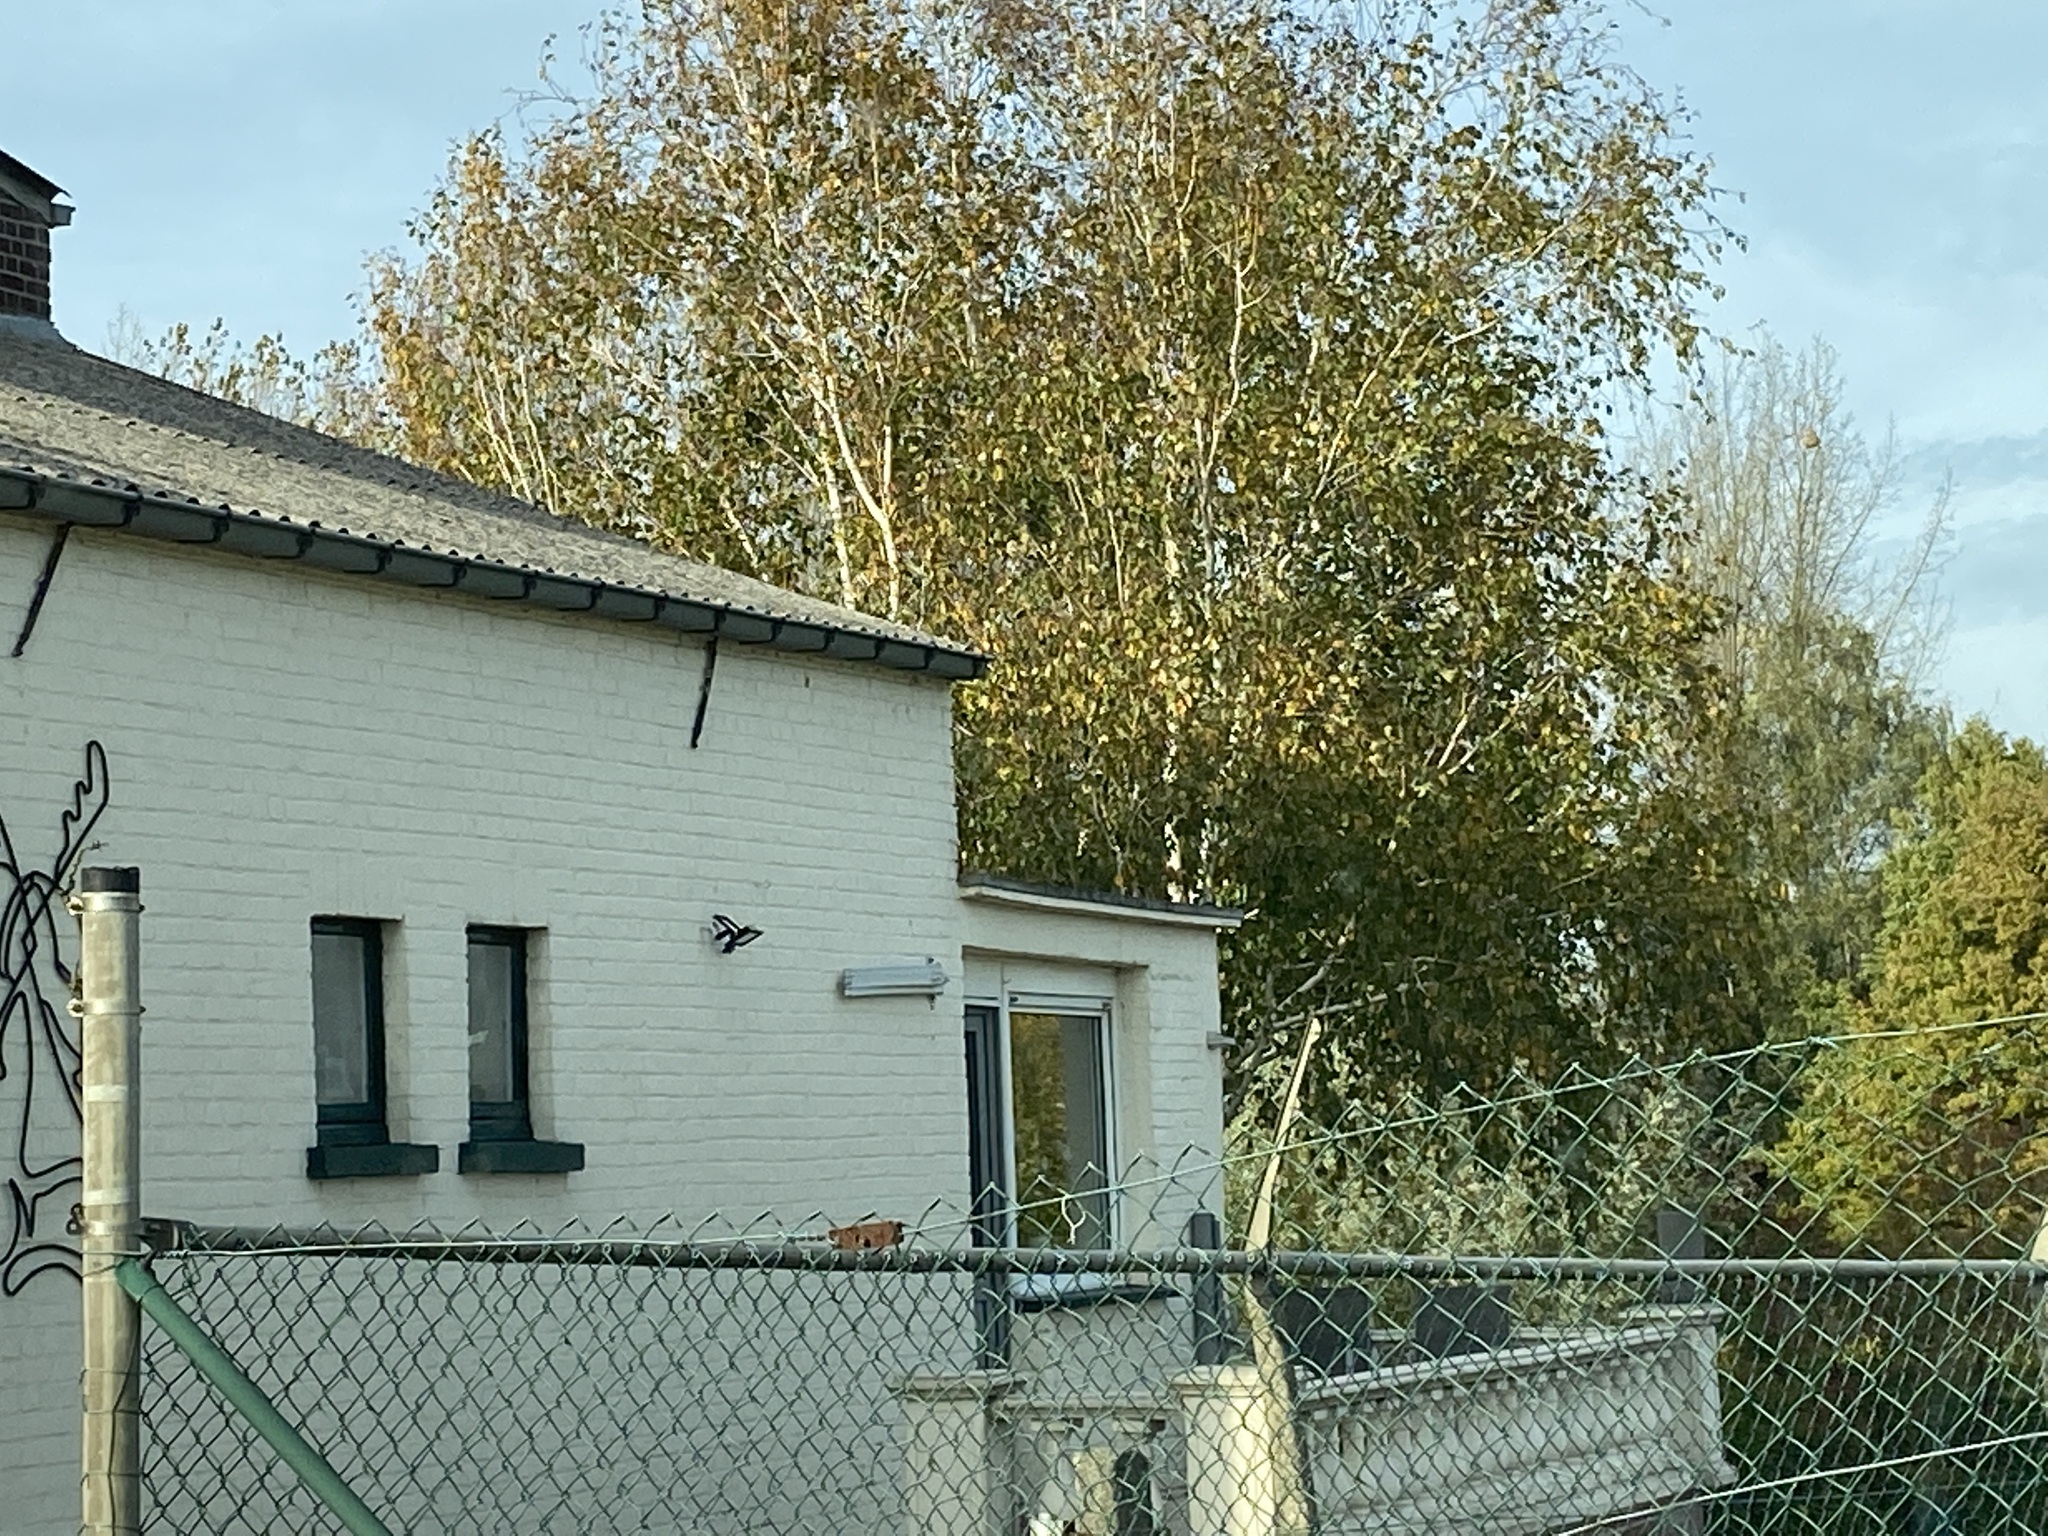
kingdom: Animalia
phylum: Arthropoda
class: Insecta
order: Hymenoptera
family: Vespidae
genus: Vespa
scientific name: Vespa velutina
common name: Asian hornet
